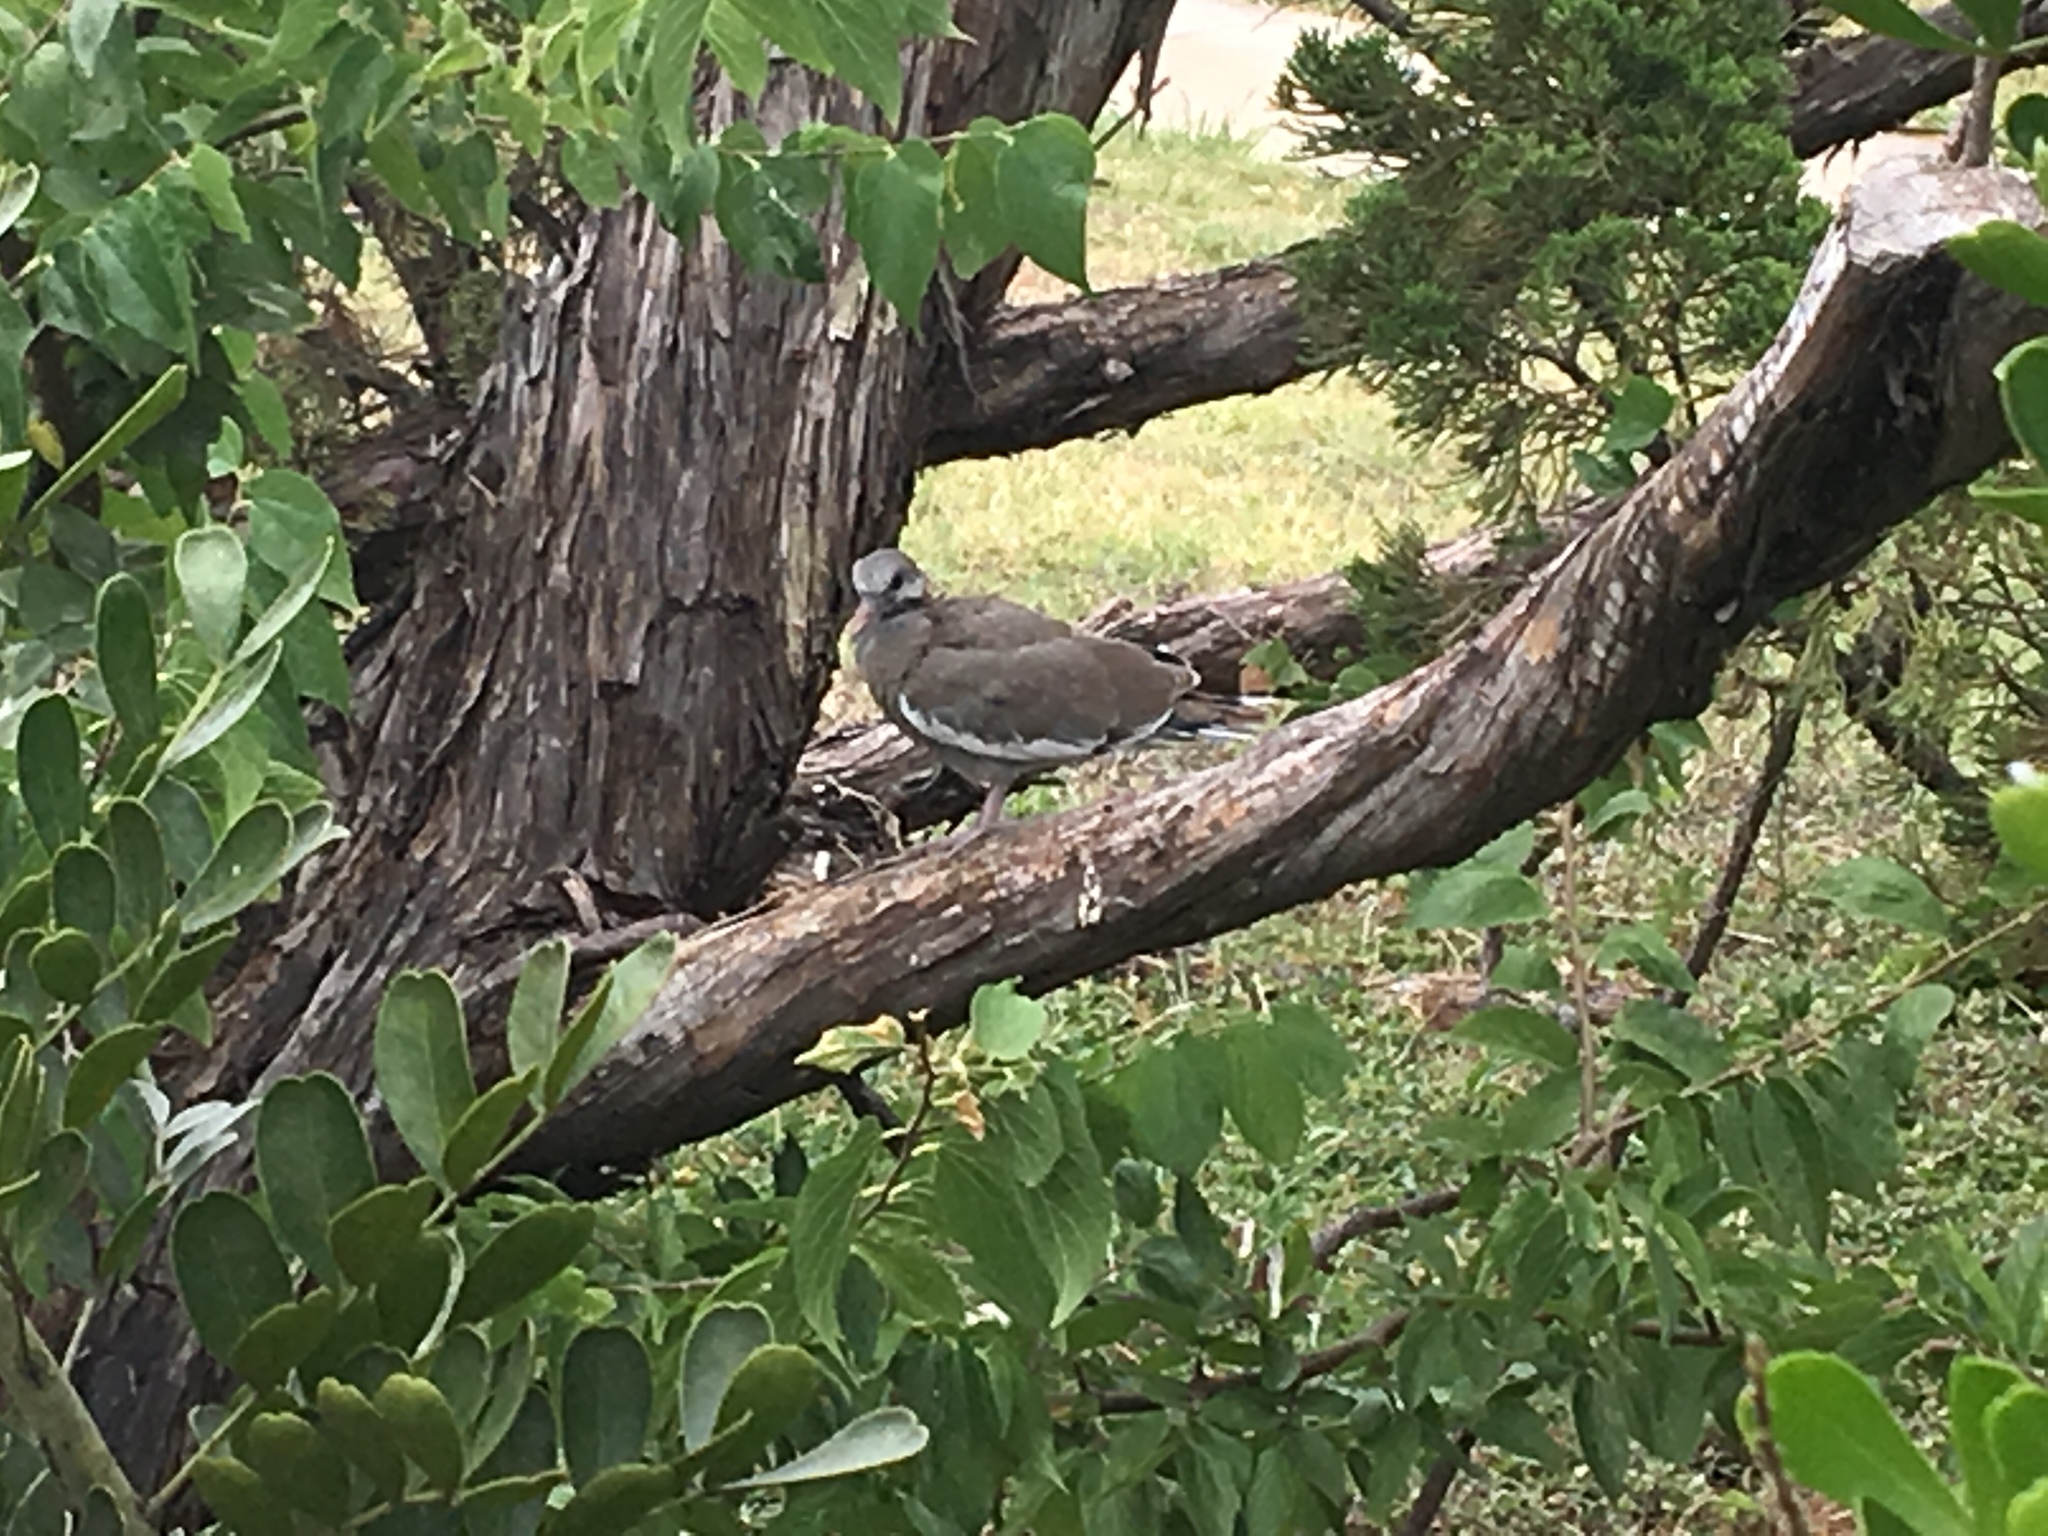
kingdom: Animalia
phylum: Chordata
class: Aves
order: Columbiformes
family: Columbidae
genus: Zenaida
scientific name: Zenaida asiatica
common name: White-winged dove
